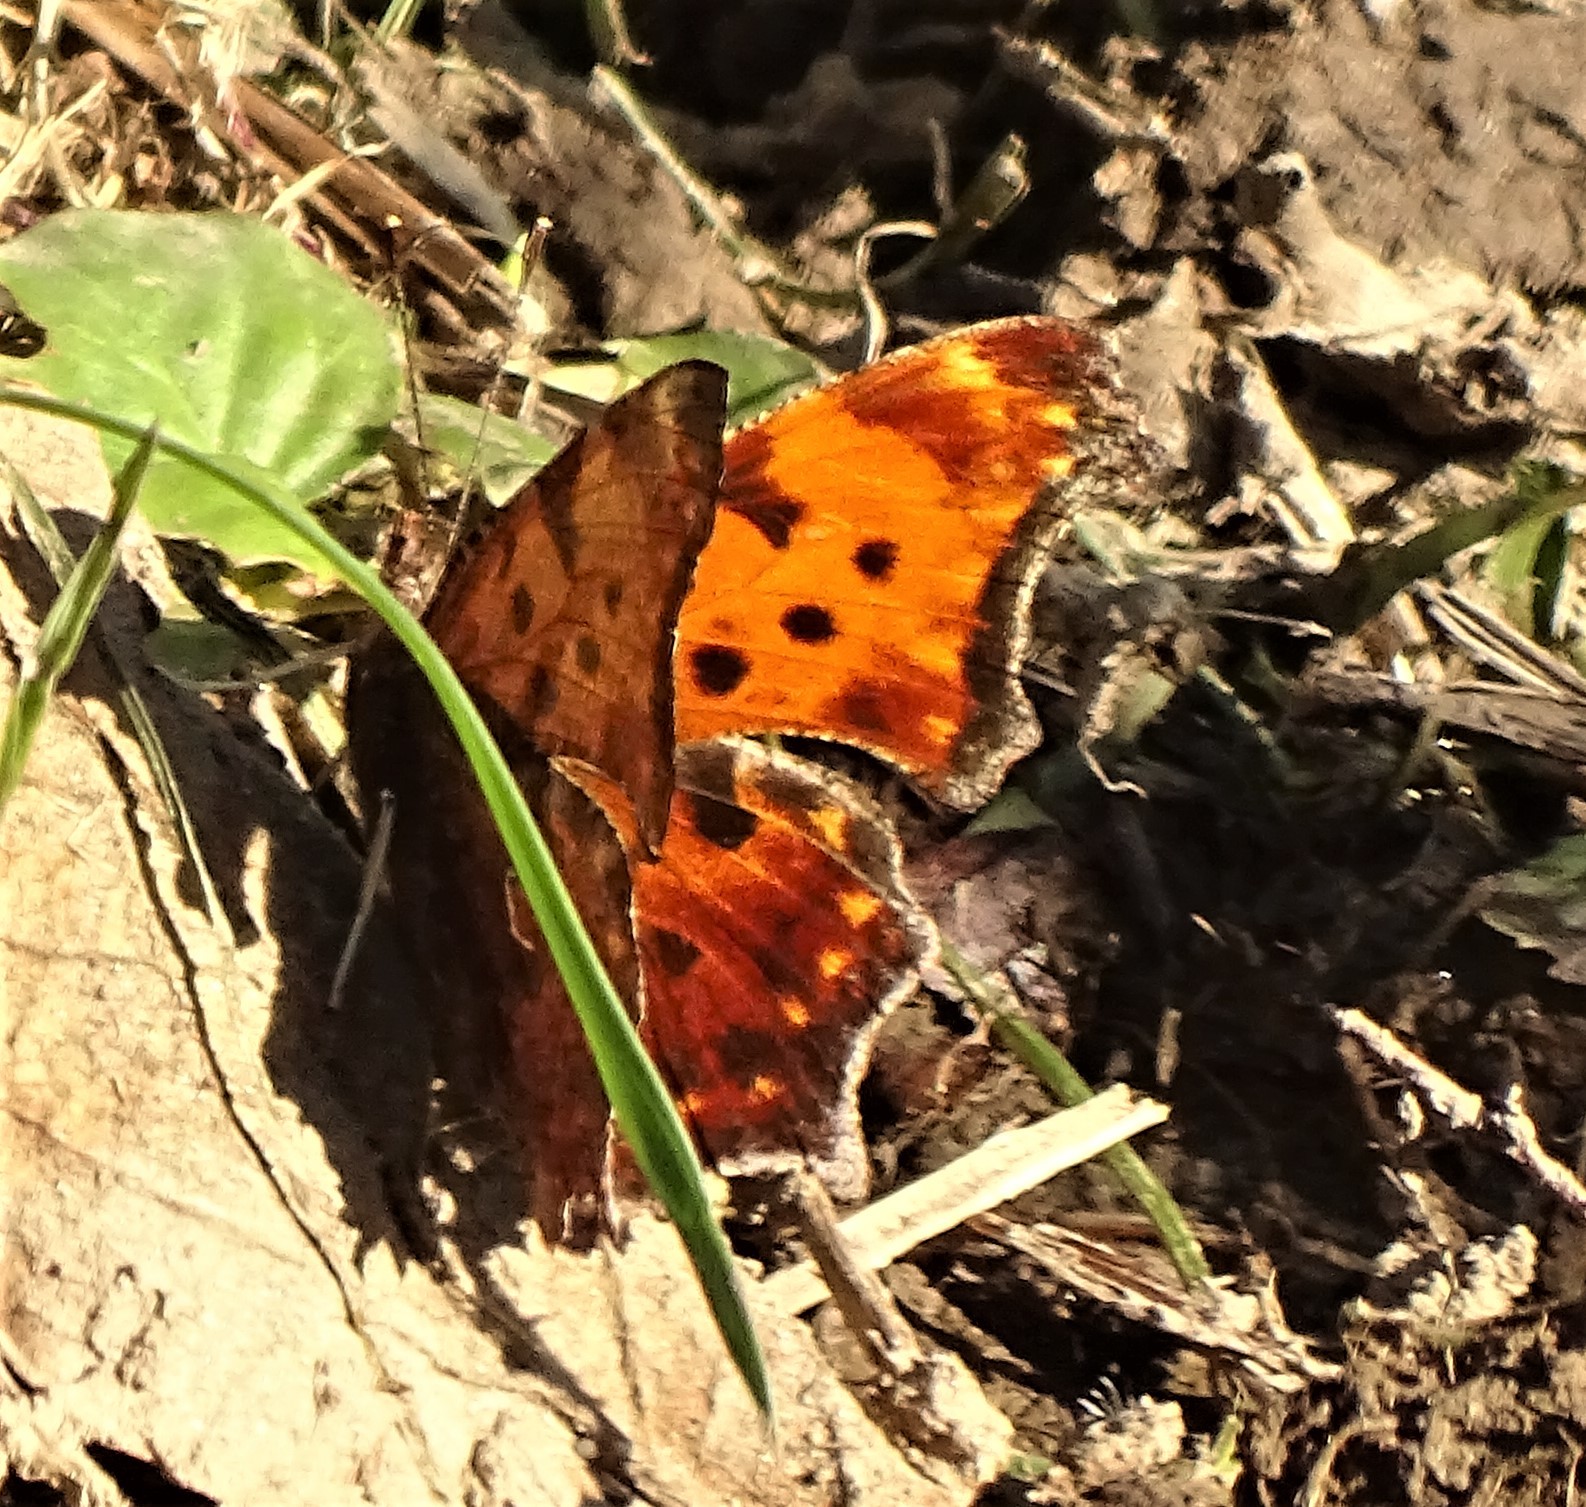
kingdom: Animalia
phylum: Arthropoda
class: Insecta
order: Lepidoptera
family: Nymphalidae
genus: Polygonia
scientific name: Polygonia comma
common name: Eastern comma
